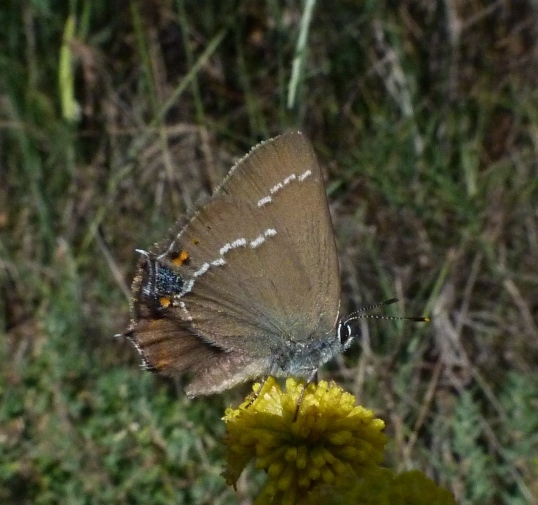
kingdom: Animalia
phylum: Arthropoda
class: Insecta
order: Lepidoptera
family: Lycaenidae
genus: Tuttiola
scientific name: Tuttiola spini
